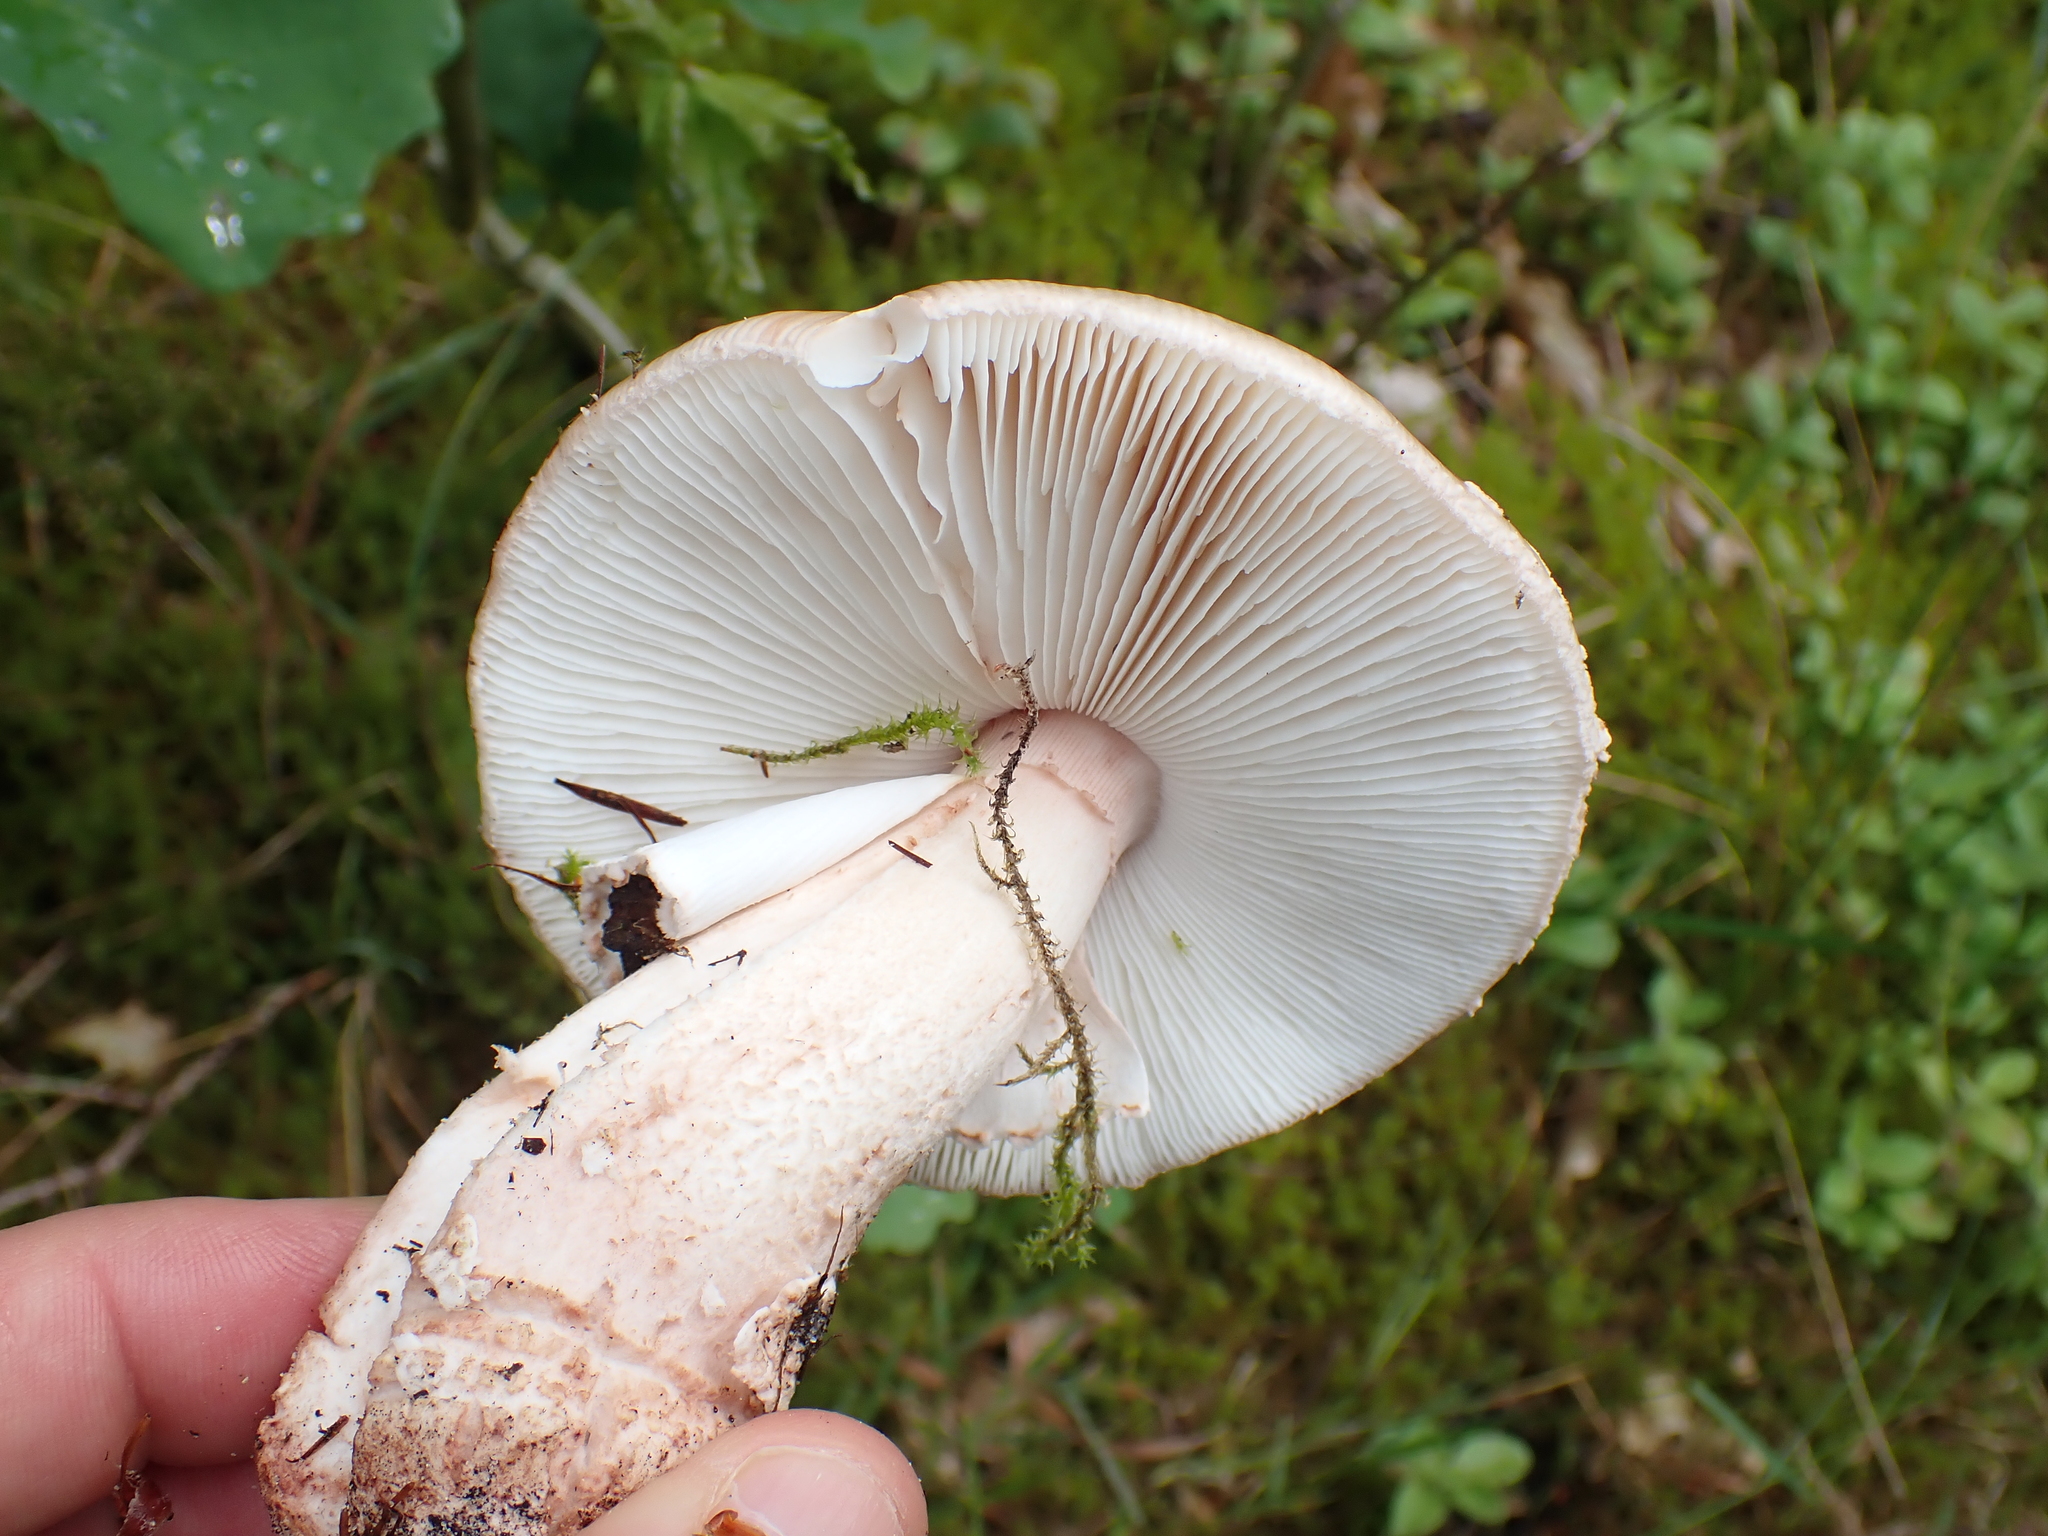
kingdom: Fungi
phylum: Basidiomycota
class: Agaricomycetes
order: Agaricales
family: Amanitaceae
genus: Amanita
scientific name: Amanita rubescens
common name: Blusher
